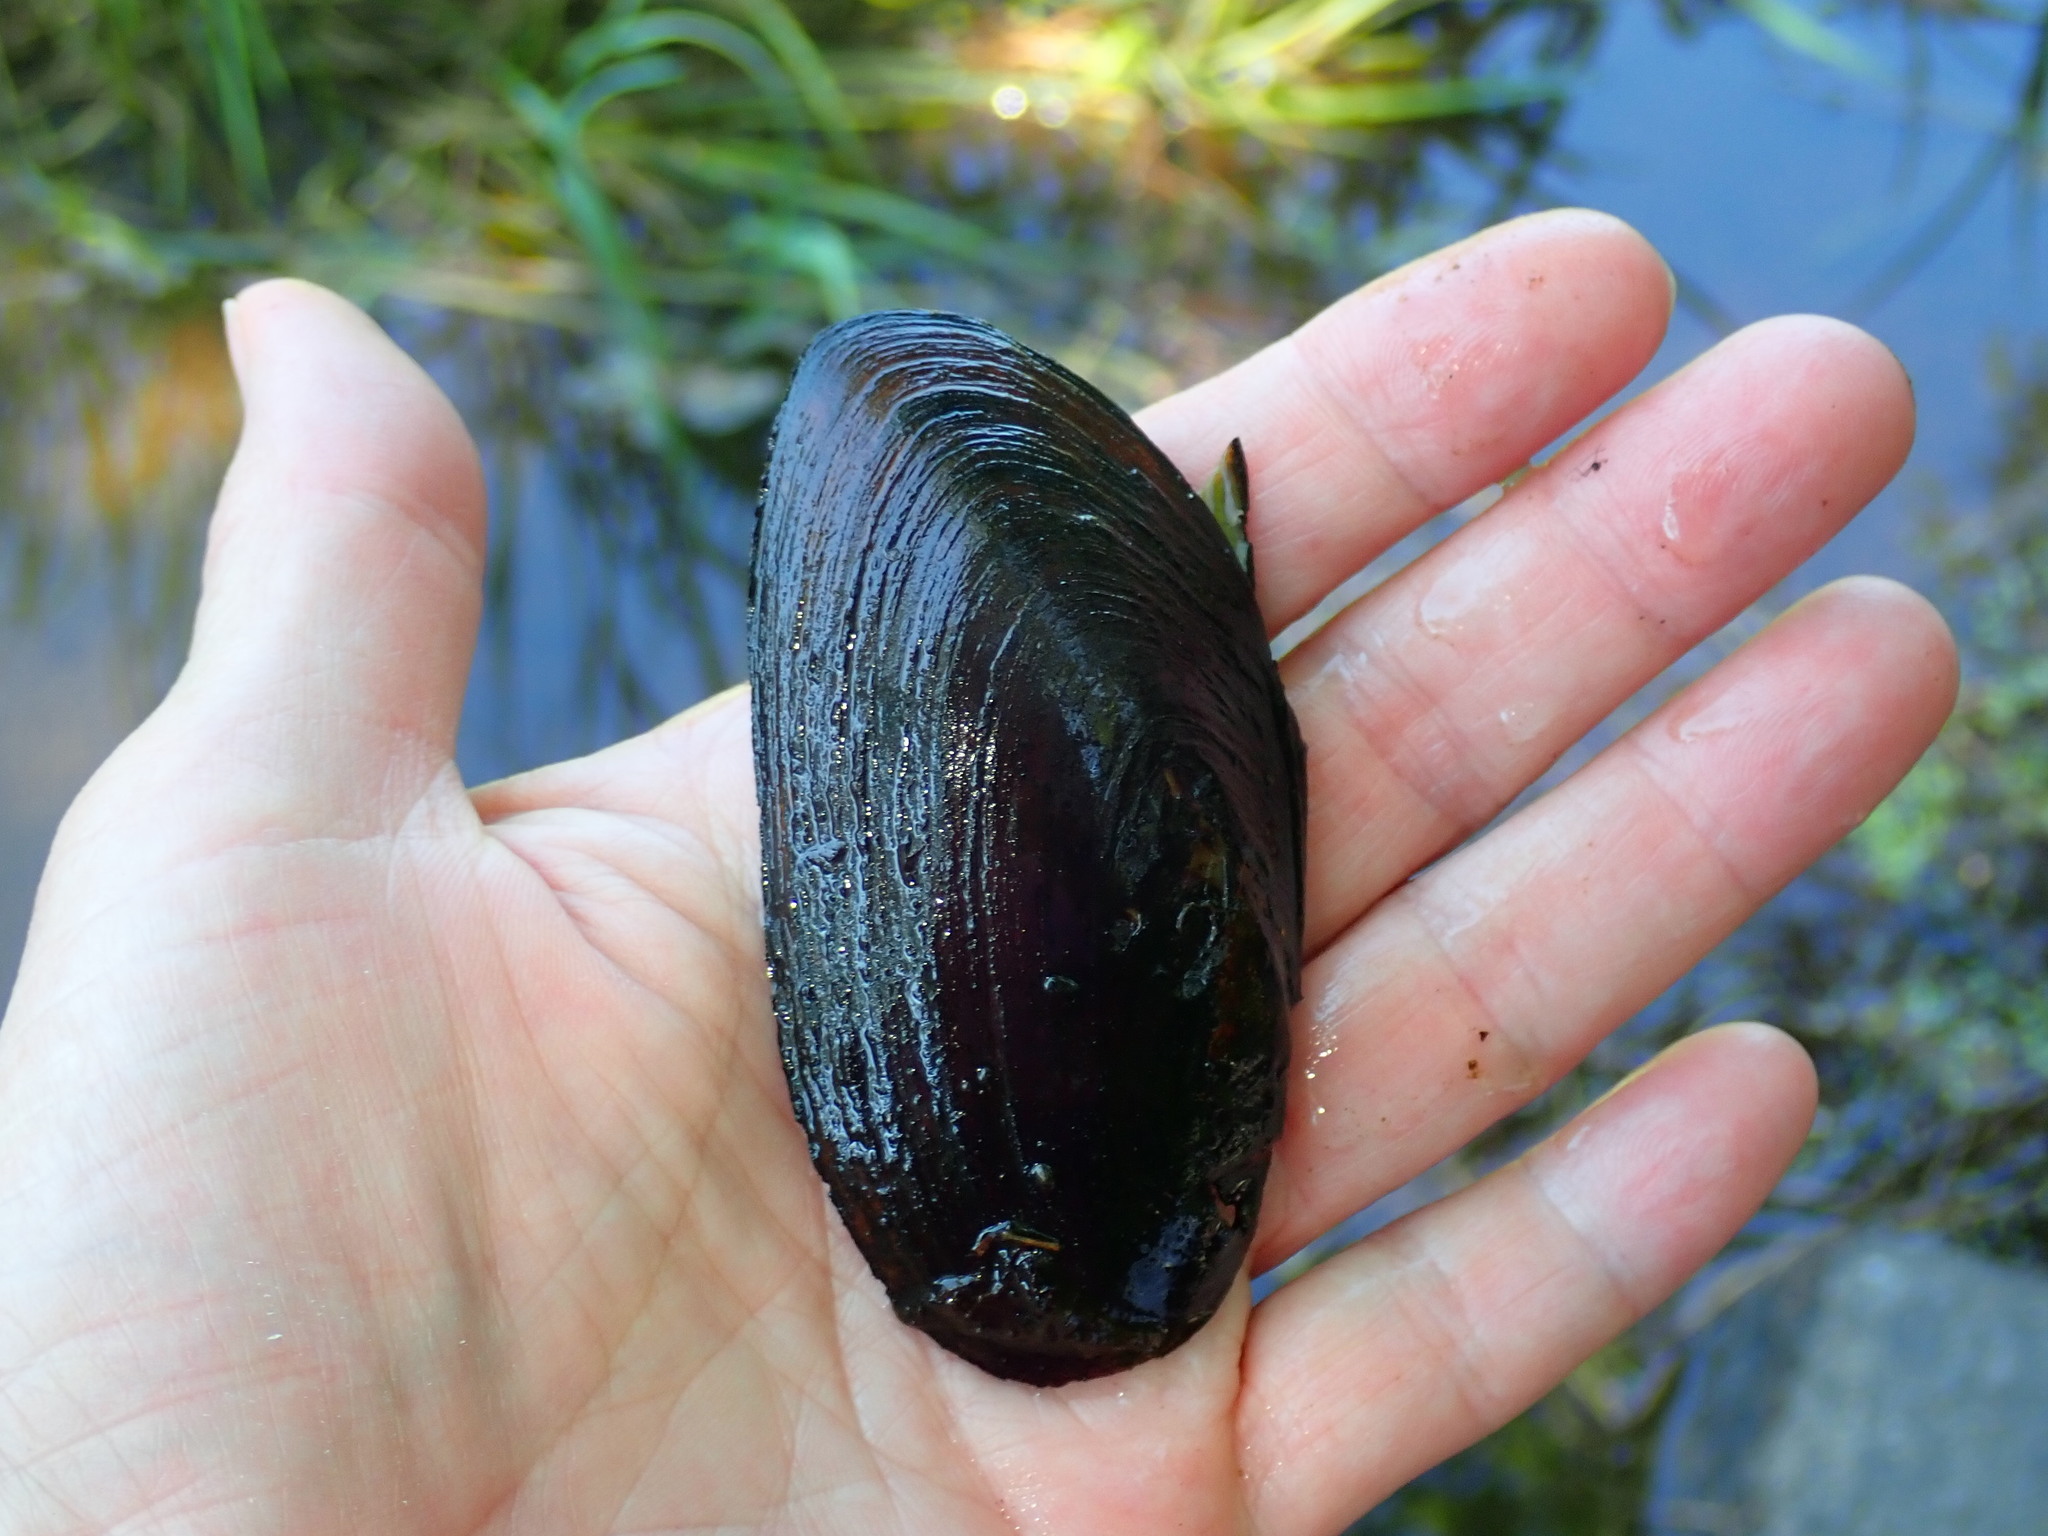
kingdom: Animalia
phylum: Mollusca
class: Bivalvia
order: Unionida
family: Unionidae
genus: Elliptio
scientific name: Elliptio complanata
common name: Eastern elliptio
